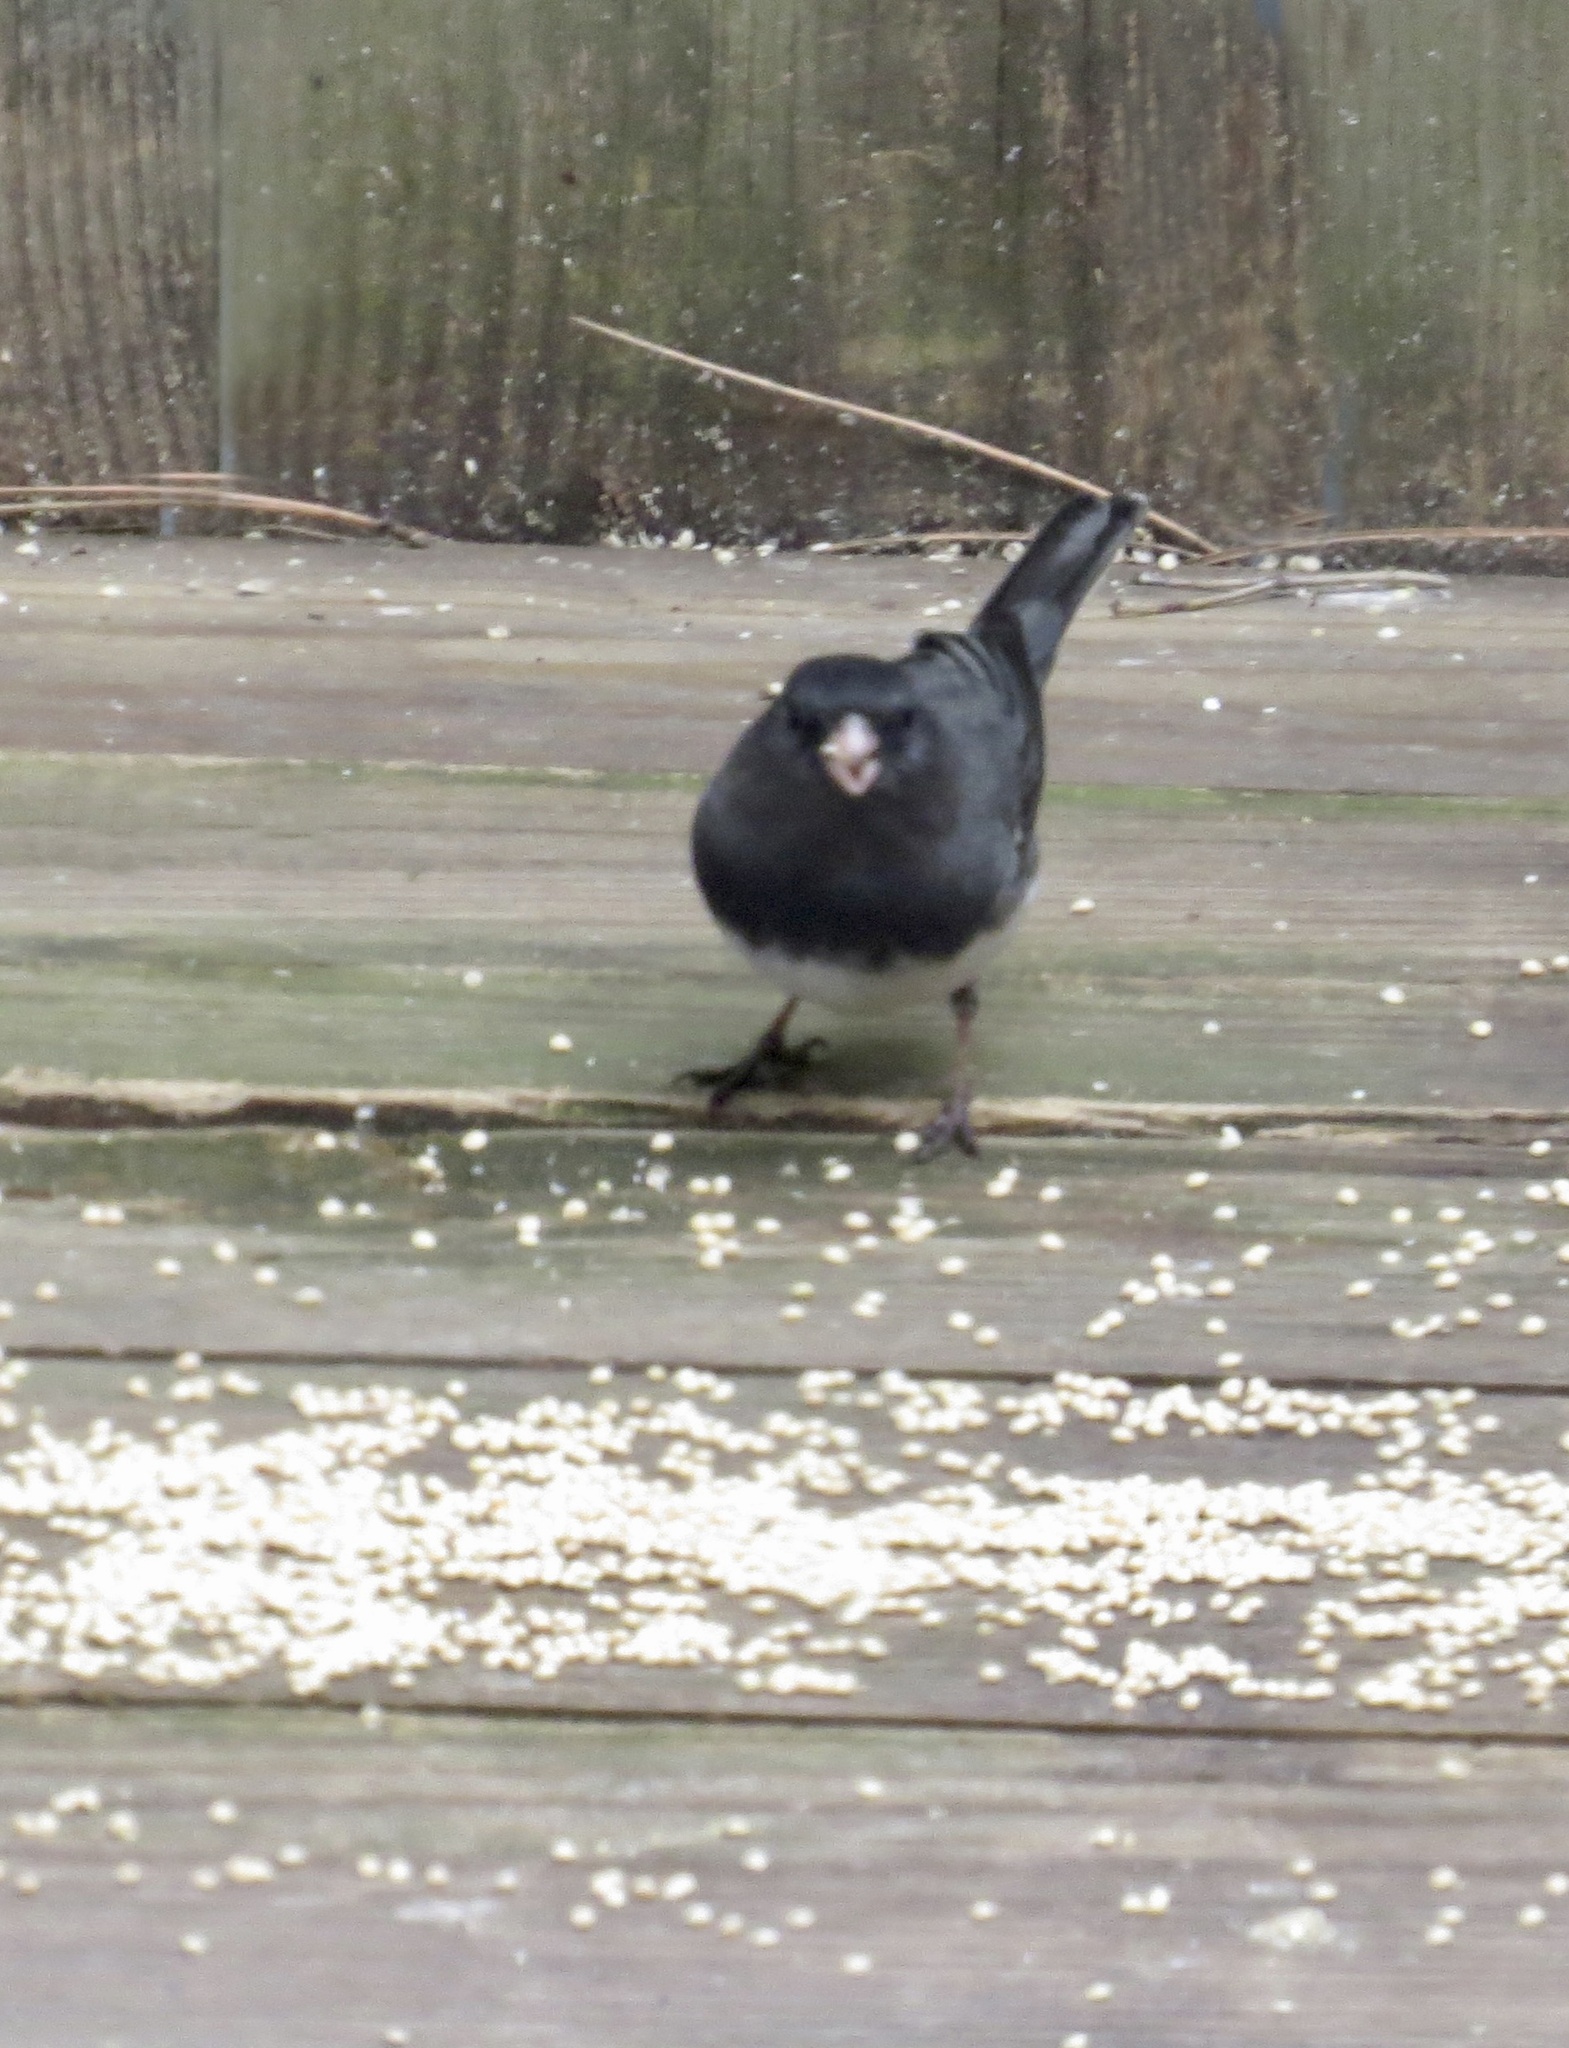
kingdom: Animalia
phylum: Chordata
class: Aves
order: Passeriformes
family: Passerellidae
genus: Junco
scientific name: Junco hyemalis
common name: Dark-eyed junco
